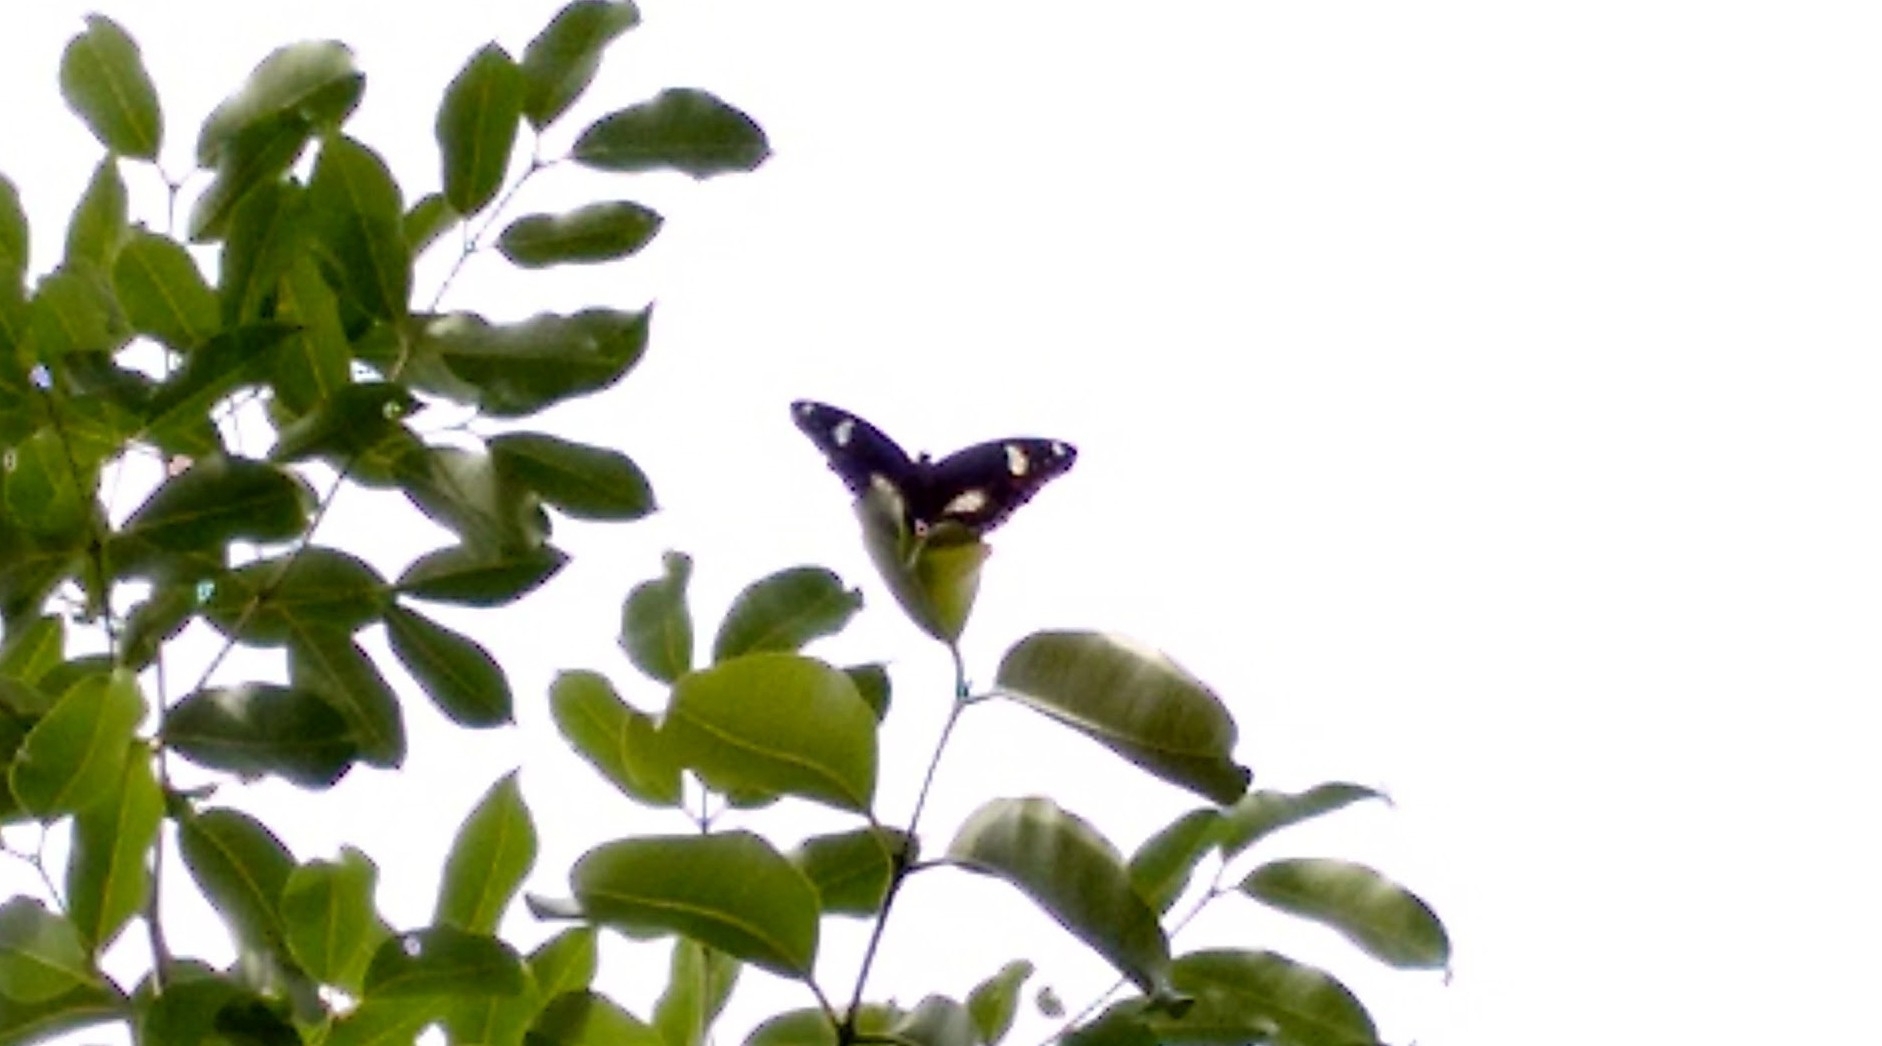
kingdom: Animalia
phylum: Arthropoda
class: Insecta
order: Lepidoptera
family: Nymphalidae
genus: Hypolimnas
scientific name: Hypolimnas bolina
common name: Great eggfly
